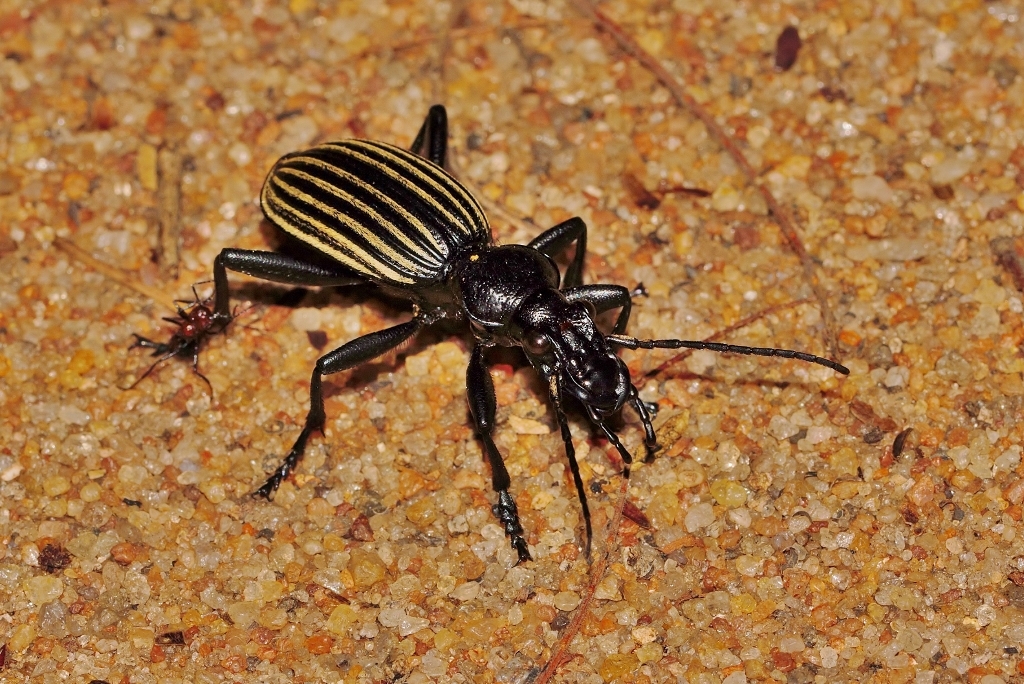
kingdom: Animalia
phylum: Arthropoda
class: Insecta
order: Coleoptera
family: Carabidae
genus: Anthia
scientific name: Anthia alternata
